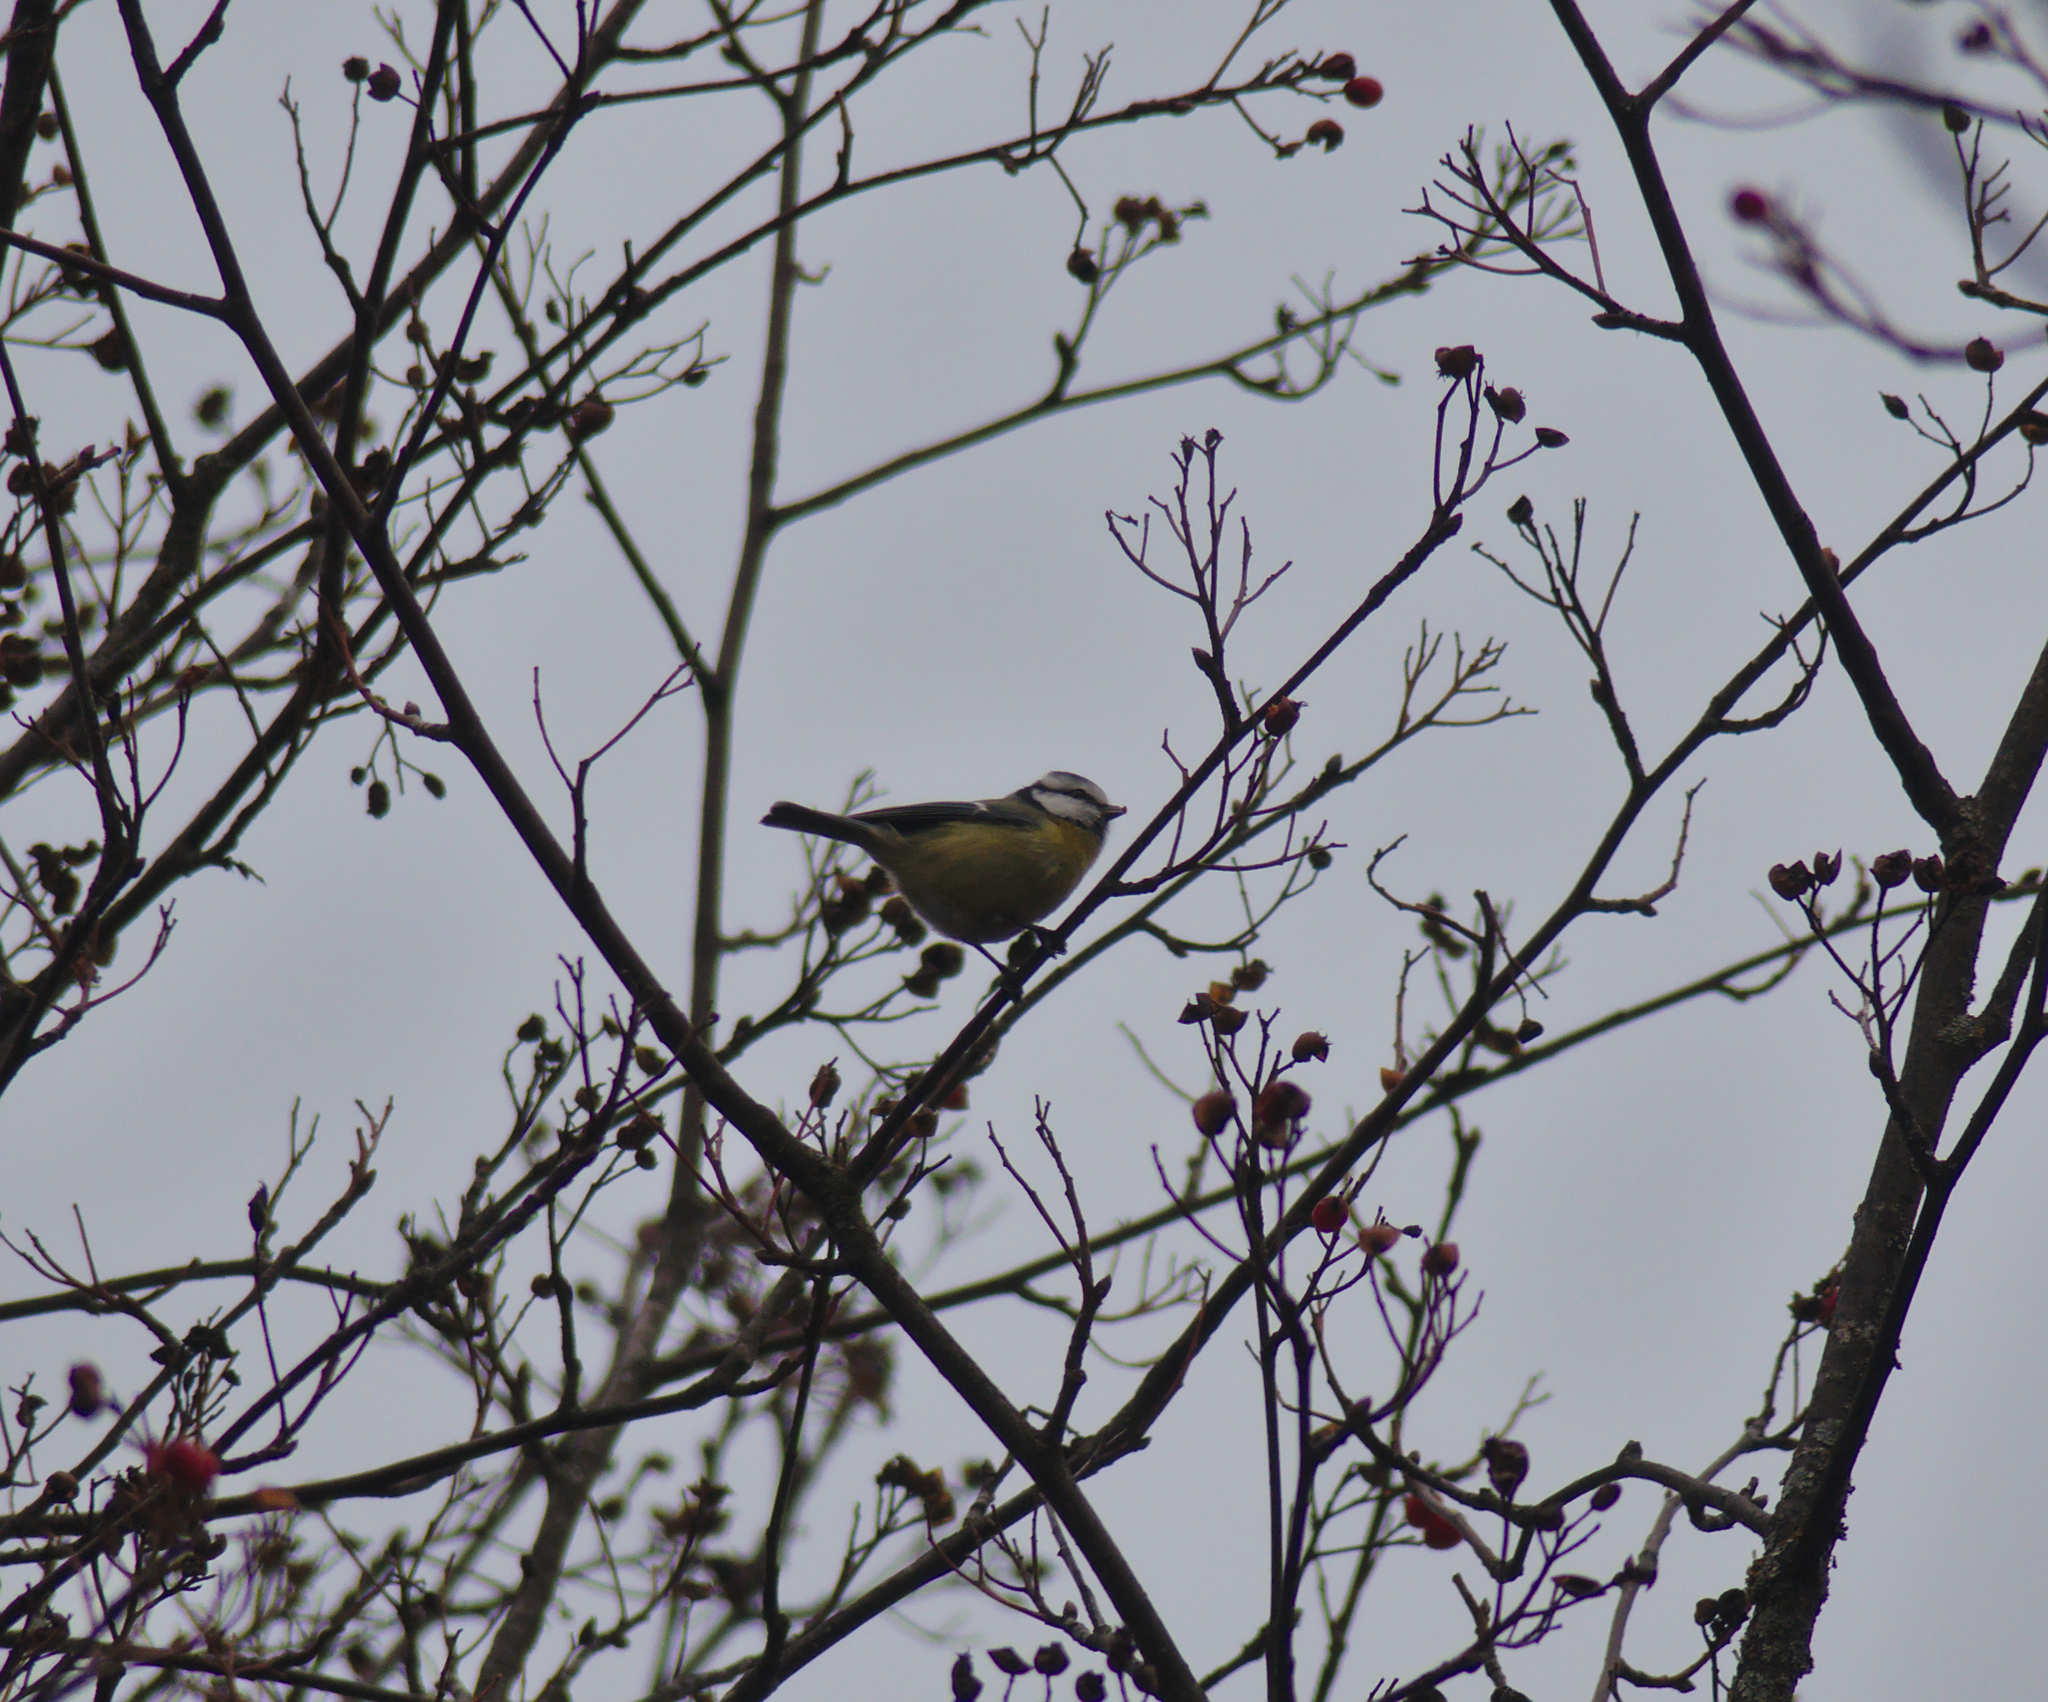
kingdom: Animalia
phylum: Chordata
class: Aves
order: Passeriformes
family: Paridae
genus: Cyanistes
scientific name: Cyanistes caeruleus
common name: Eurasian blue tit
